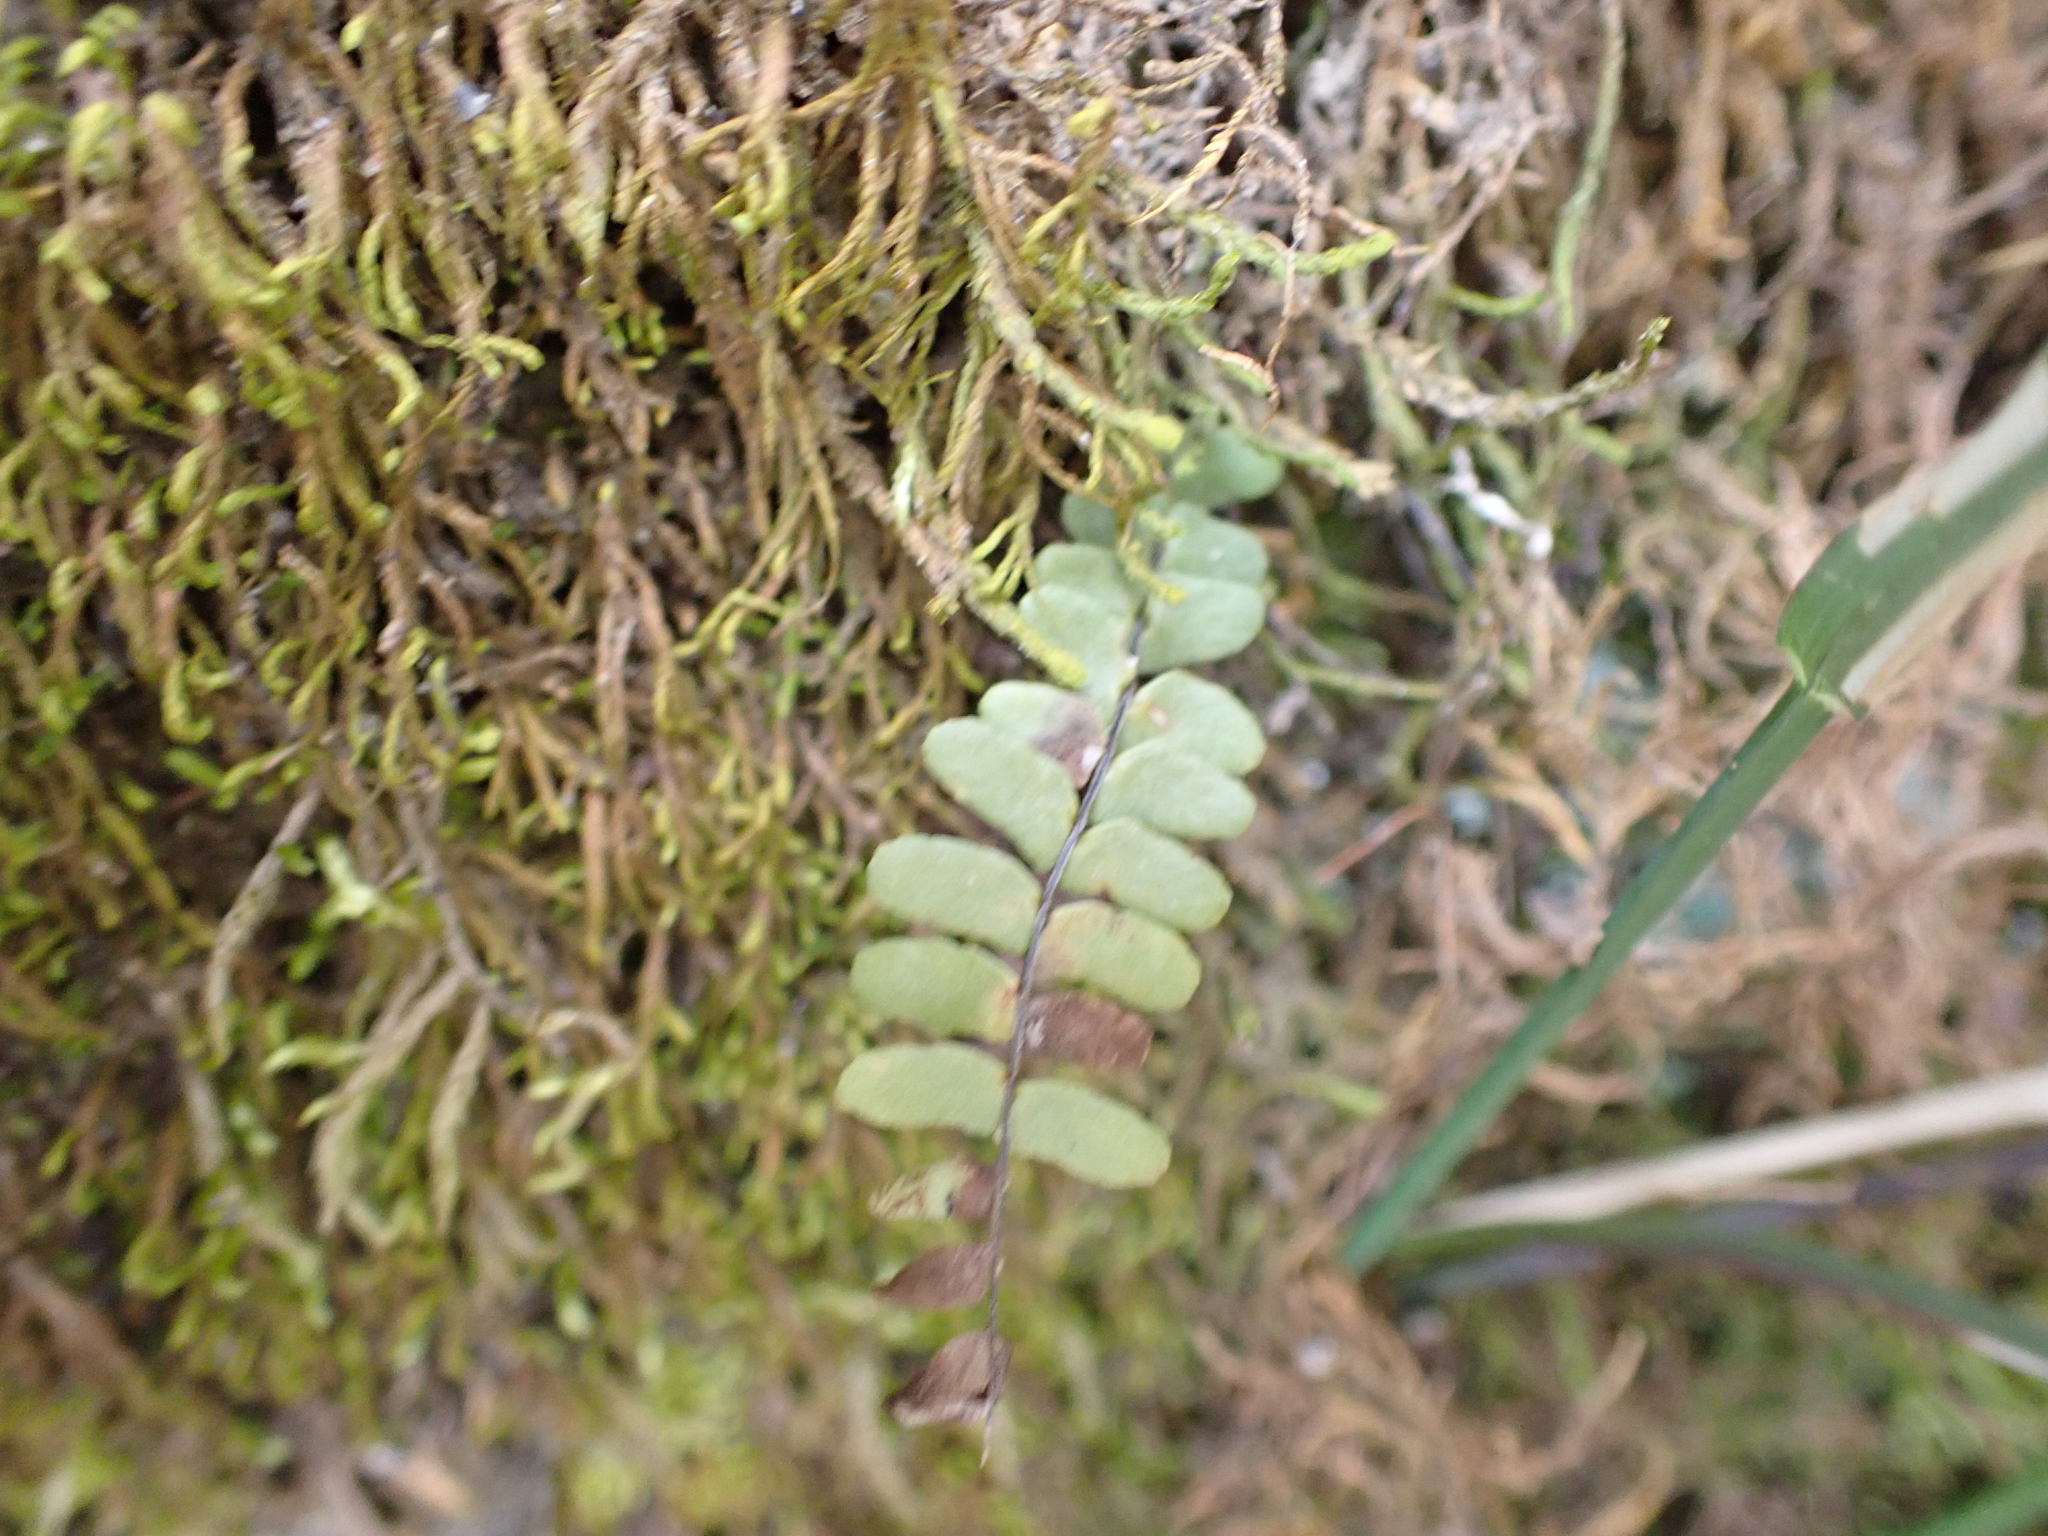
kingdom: Plantae
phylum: Tracheophyta
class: Polypodiopsida
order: Polypodiales
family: Aspleniaceae
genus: Asplenium
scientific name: Asplenium resiliens
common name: Blackstem spleenwort
